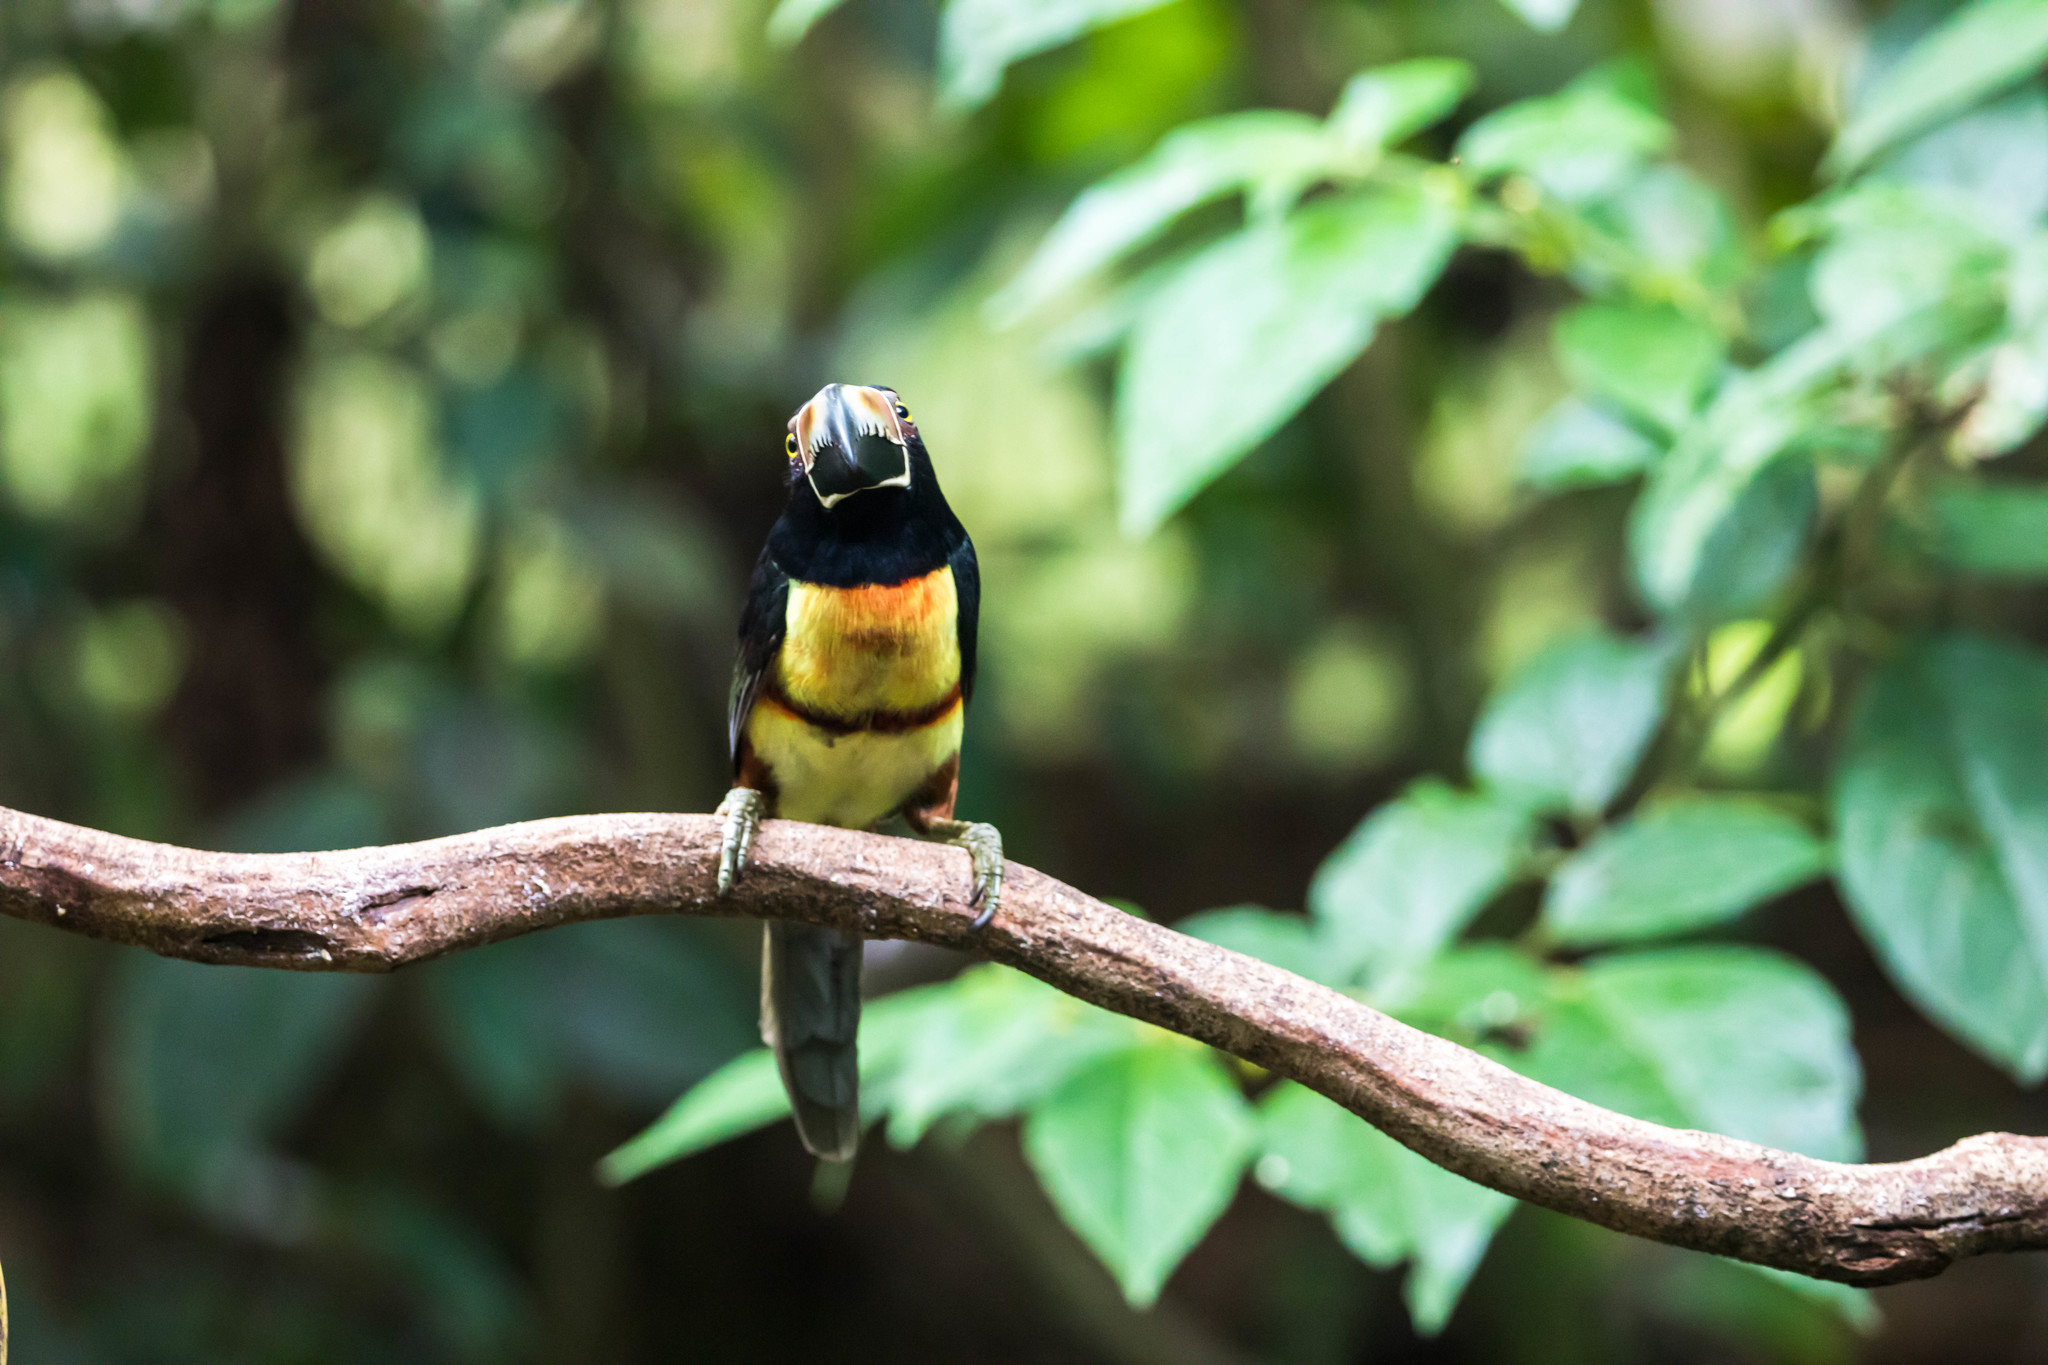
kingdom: Animalia
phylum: Chordata
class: Aves
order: Piciformes
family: Ramphastidae
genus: Pteroglossus
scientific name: Pteroglossus torquatus
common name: Collared aracari
